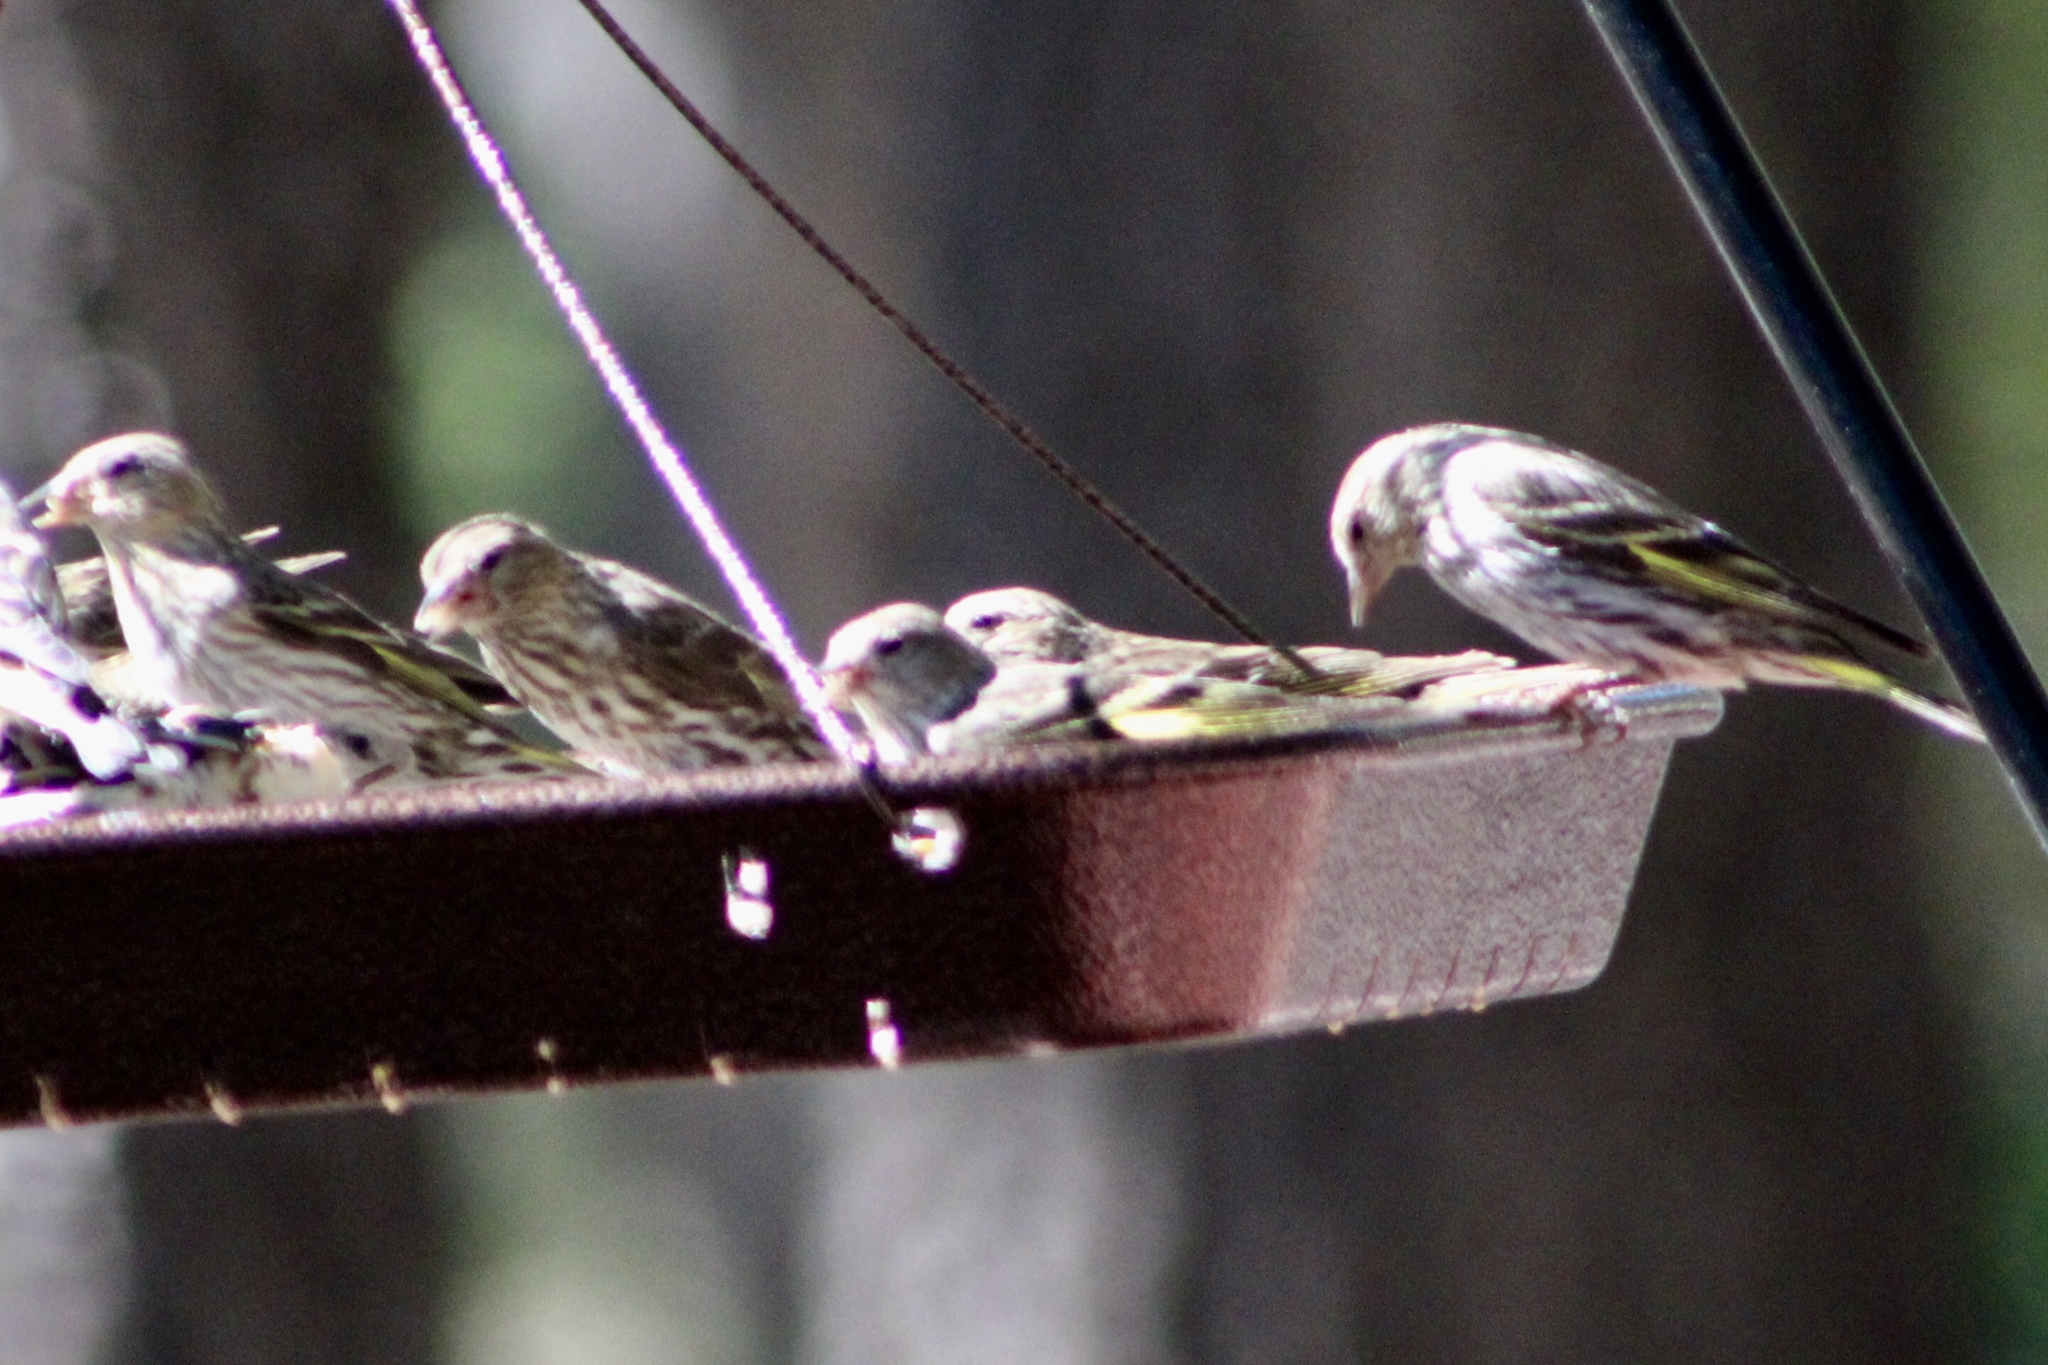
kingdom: Animalia
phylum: Chordata
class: Aves
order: Passeriformes
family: Fringillidae
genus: Spinus
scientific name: Spinus pinus
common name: Pine siskin
